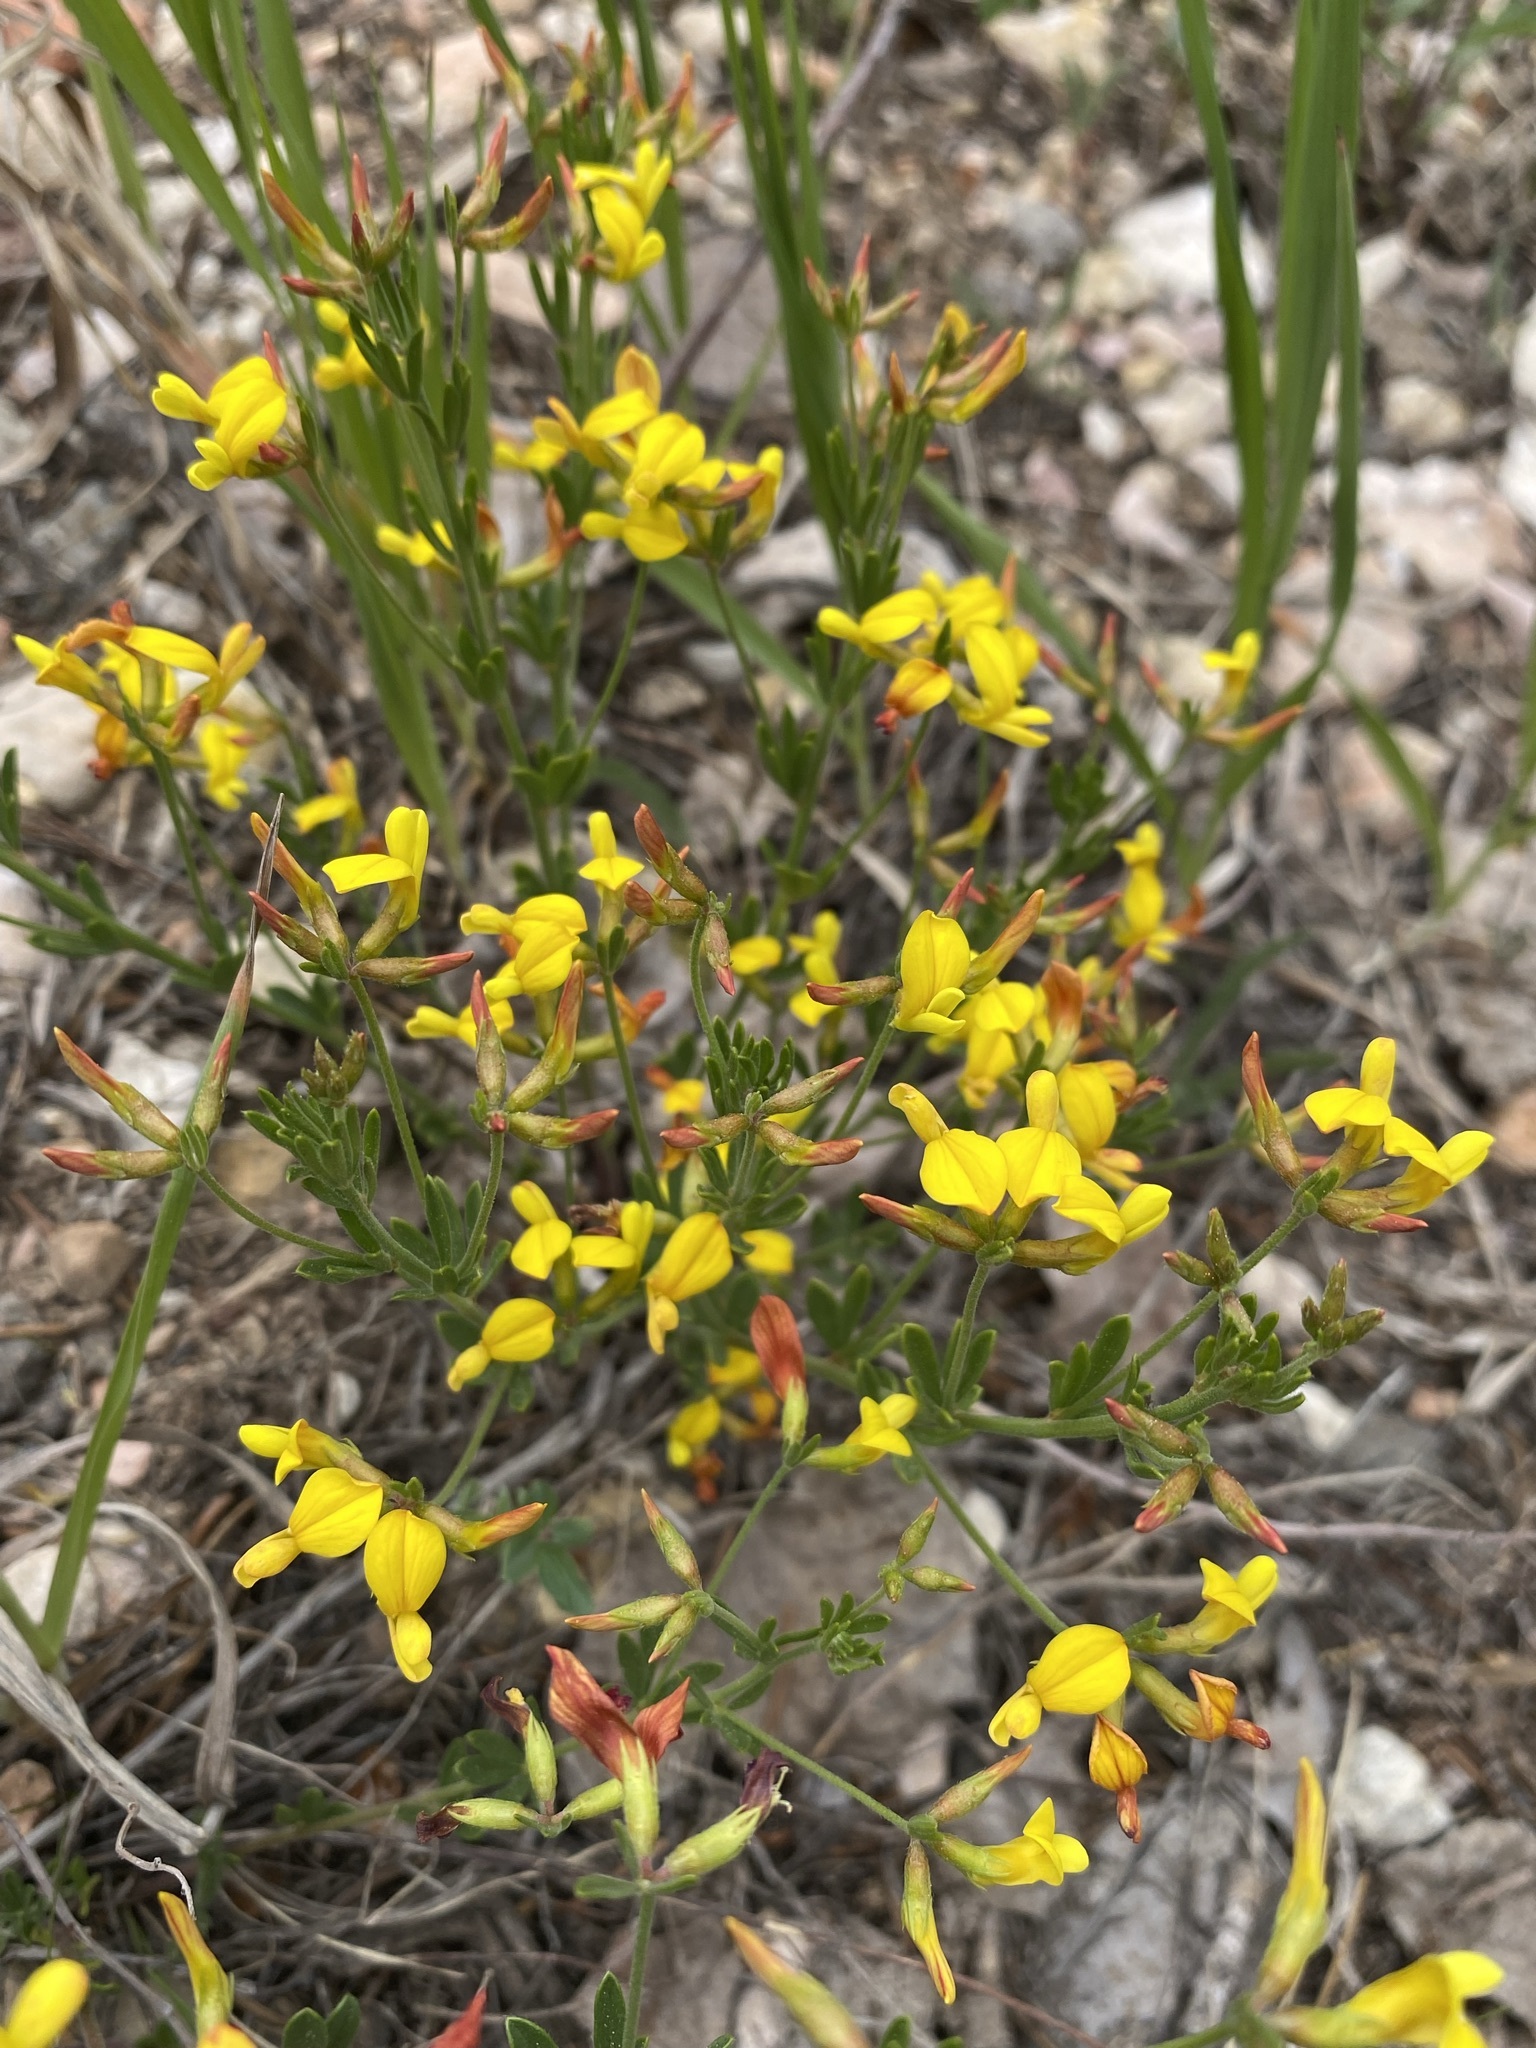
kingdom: Plantae
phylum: Tracheophyta
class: Magnoliopsida
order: Fabales
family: Fabaceae
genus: Acmispon
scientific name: Acmispon utahensis
